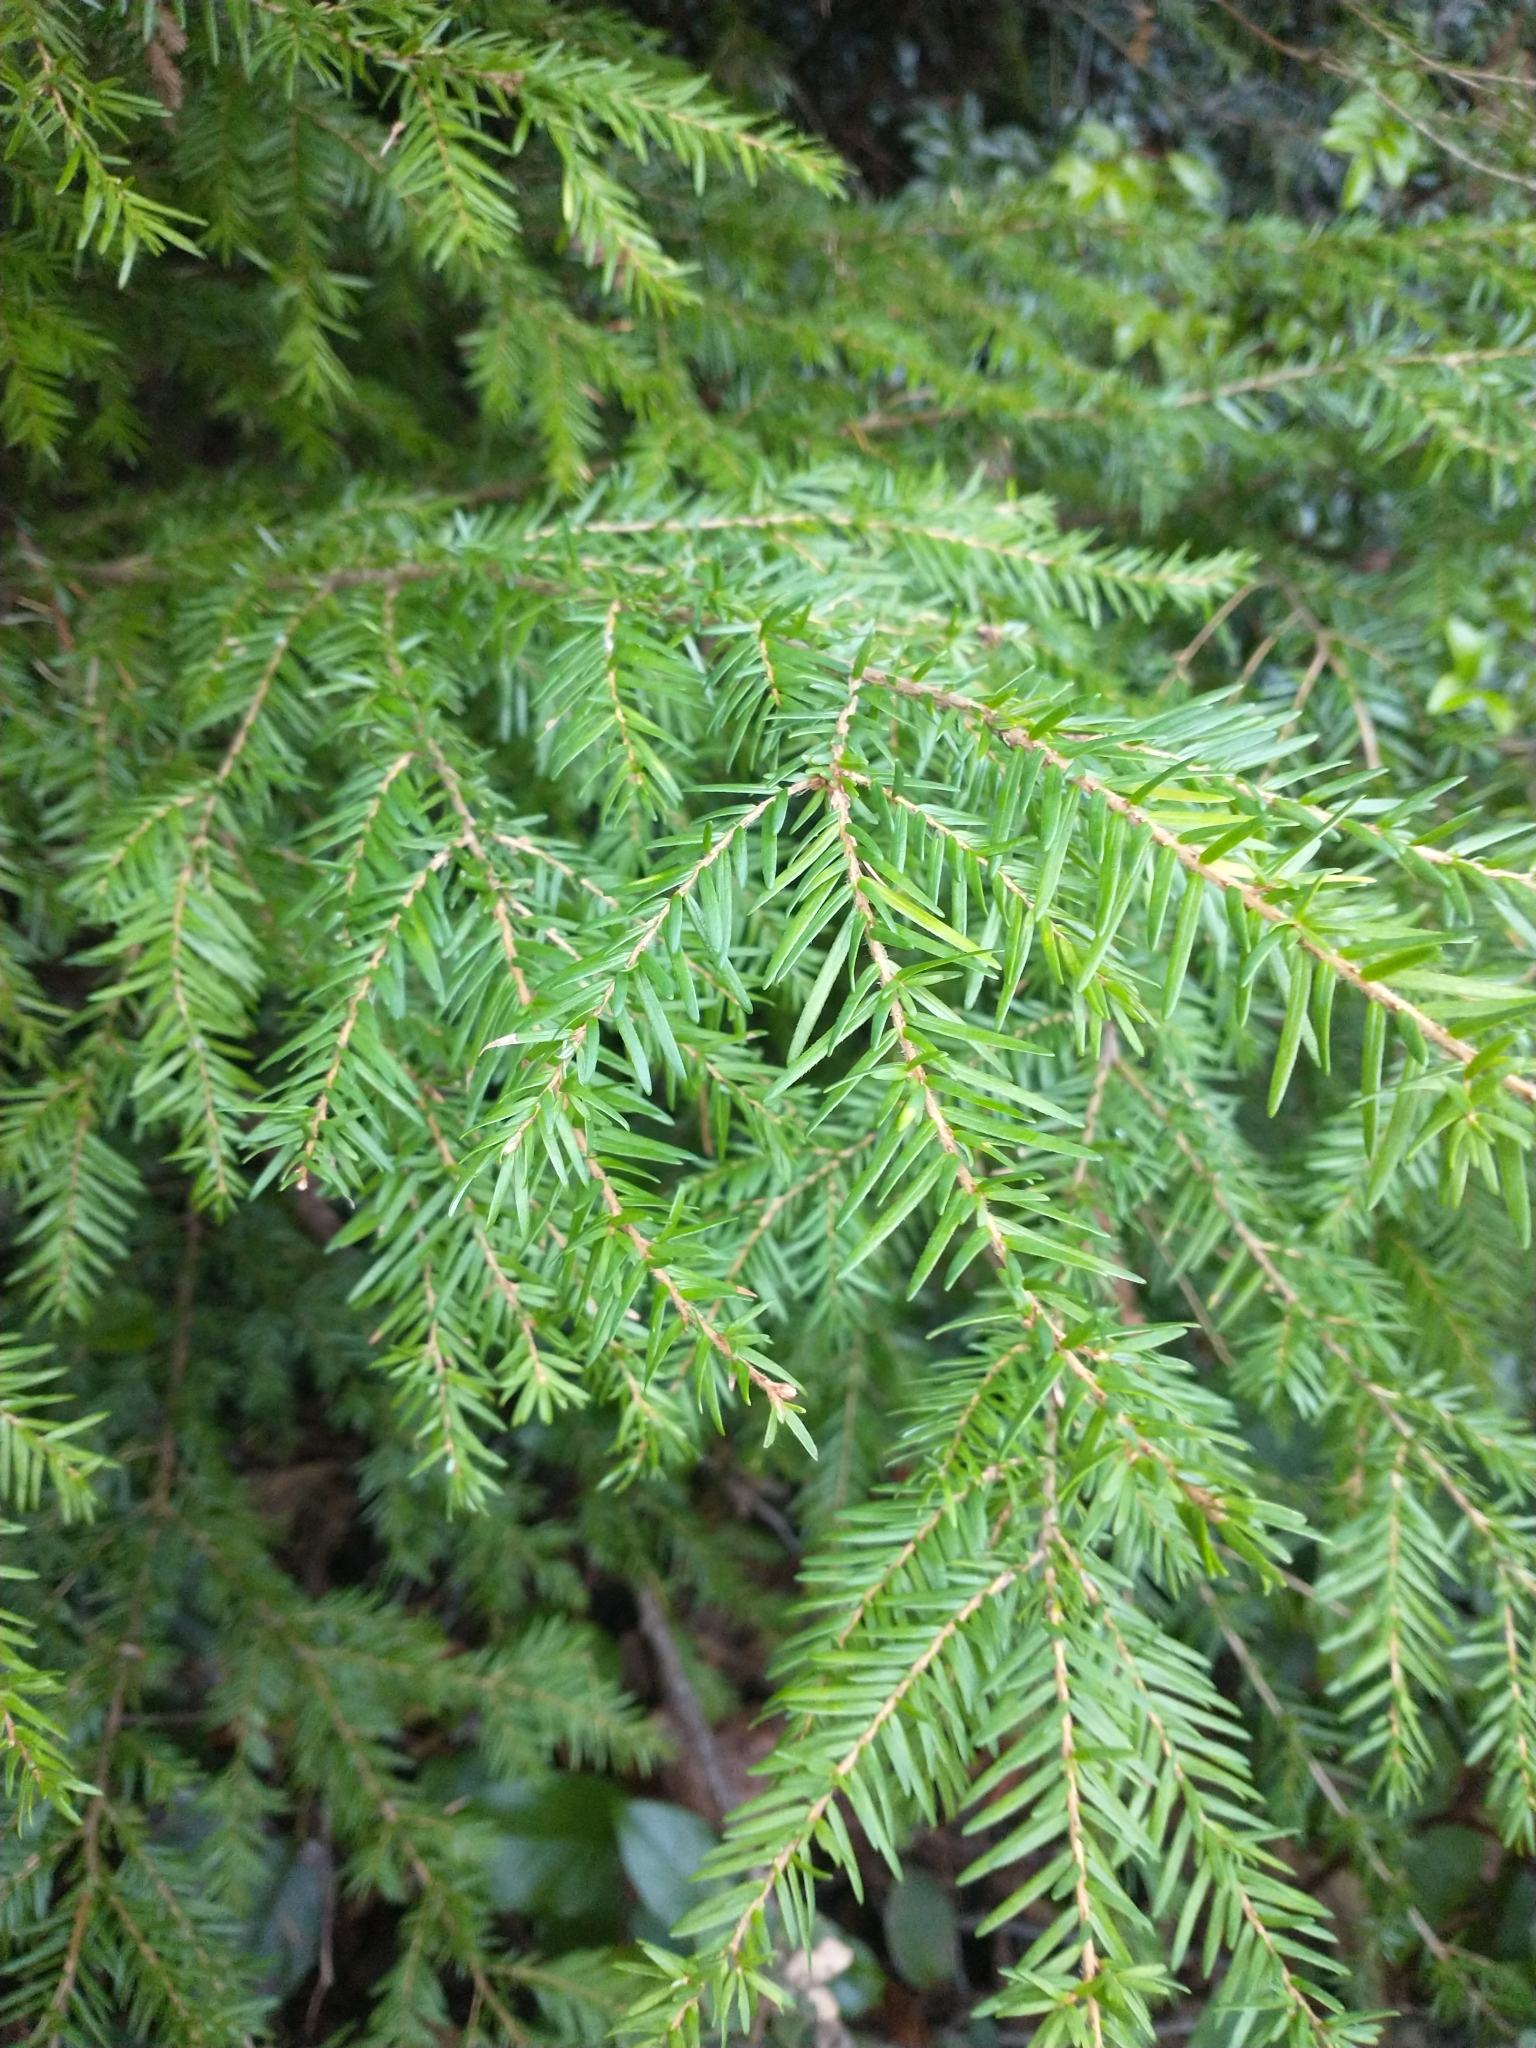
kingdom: Plantae
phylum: Tracheophyta
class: Pinopsida
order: Pinales
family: Pinaceae
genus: Tsuga
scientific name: Tsuga heterophylla
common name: Western hemlock
